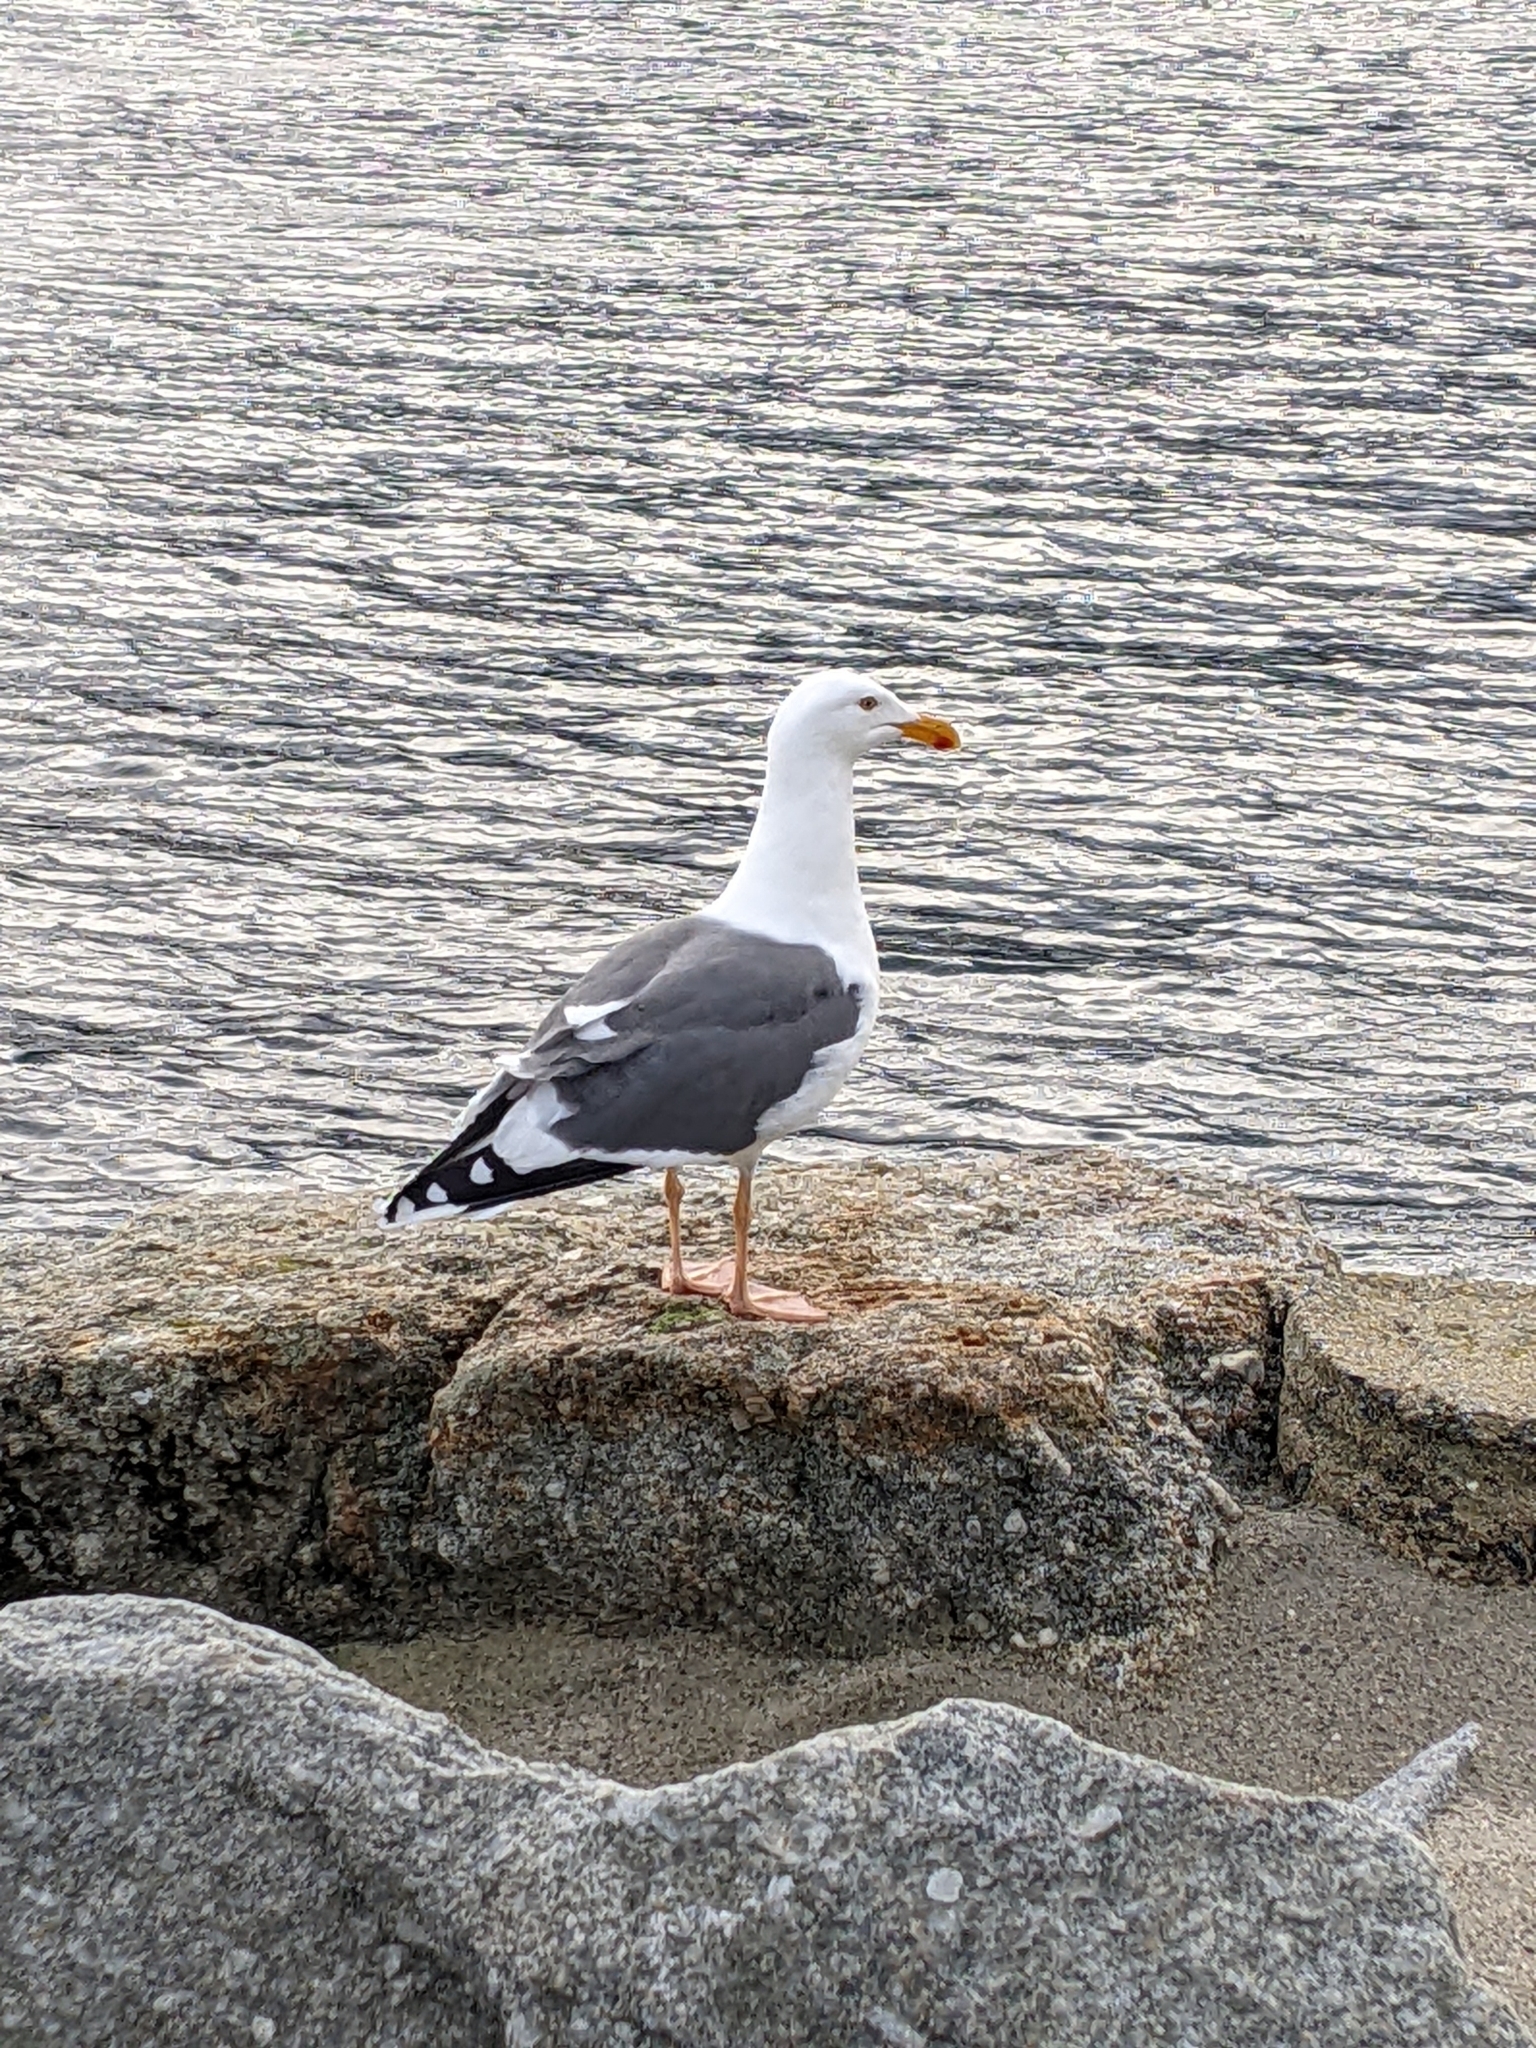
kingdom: Animalia
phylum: Chordata
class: Aves
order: Charadriiformes
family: Laridae
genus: Larus
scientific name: Larus occidentalis
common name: Western gull
